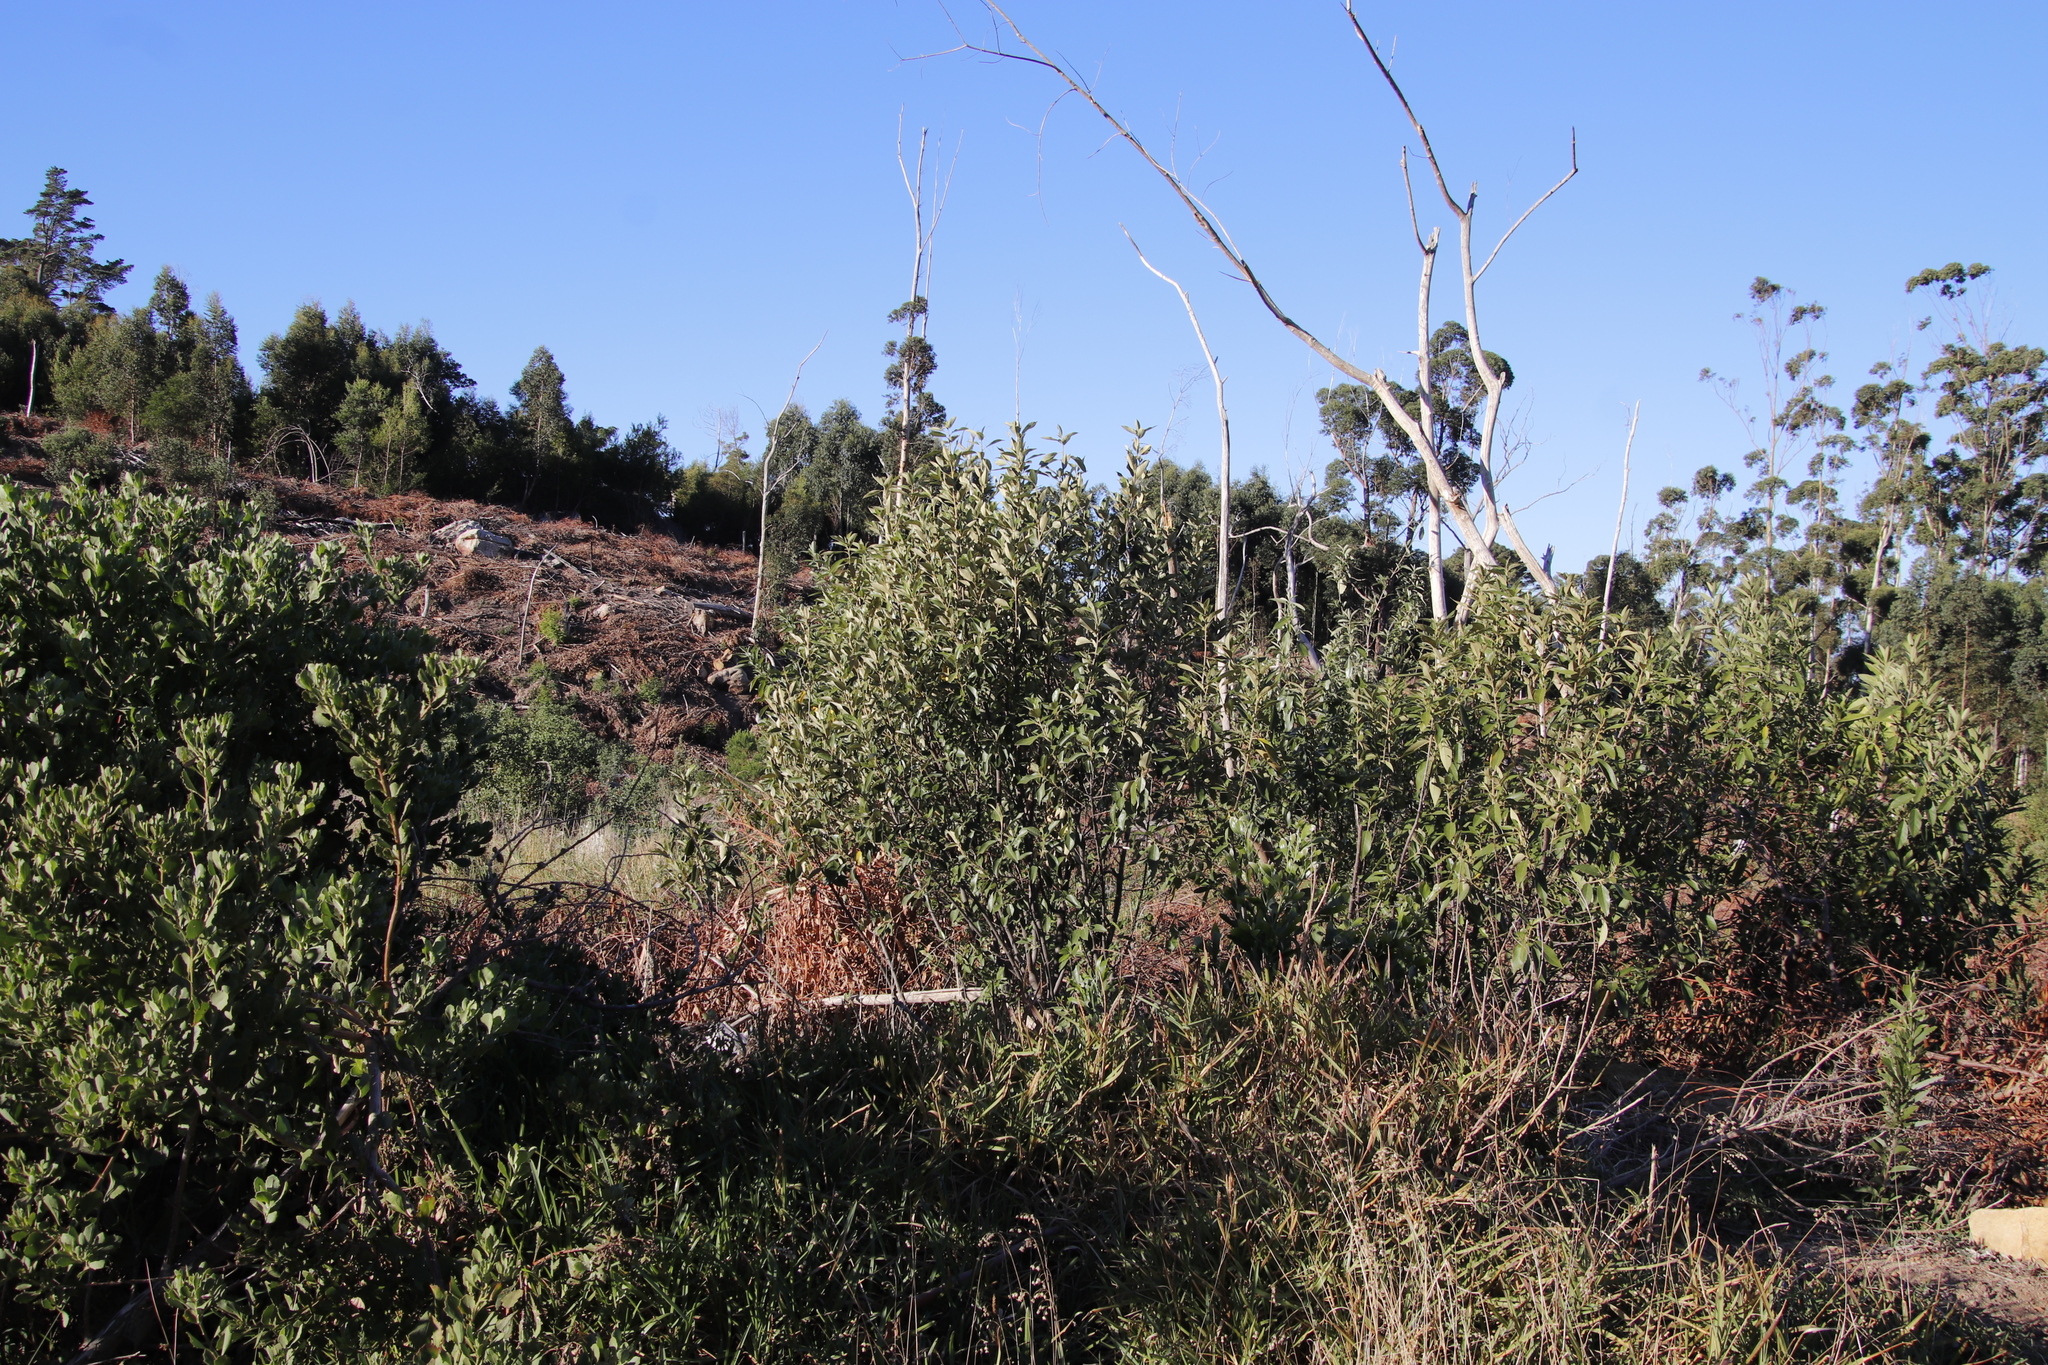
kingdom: Plantae
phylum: Tracheophyta
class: Magnoliopsida
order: Malpighiales
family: Achariaceae
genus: Kiggelaria
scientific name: Kiggelaria africana
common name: Wild peach
